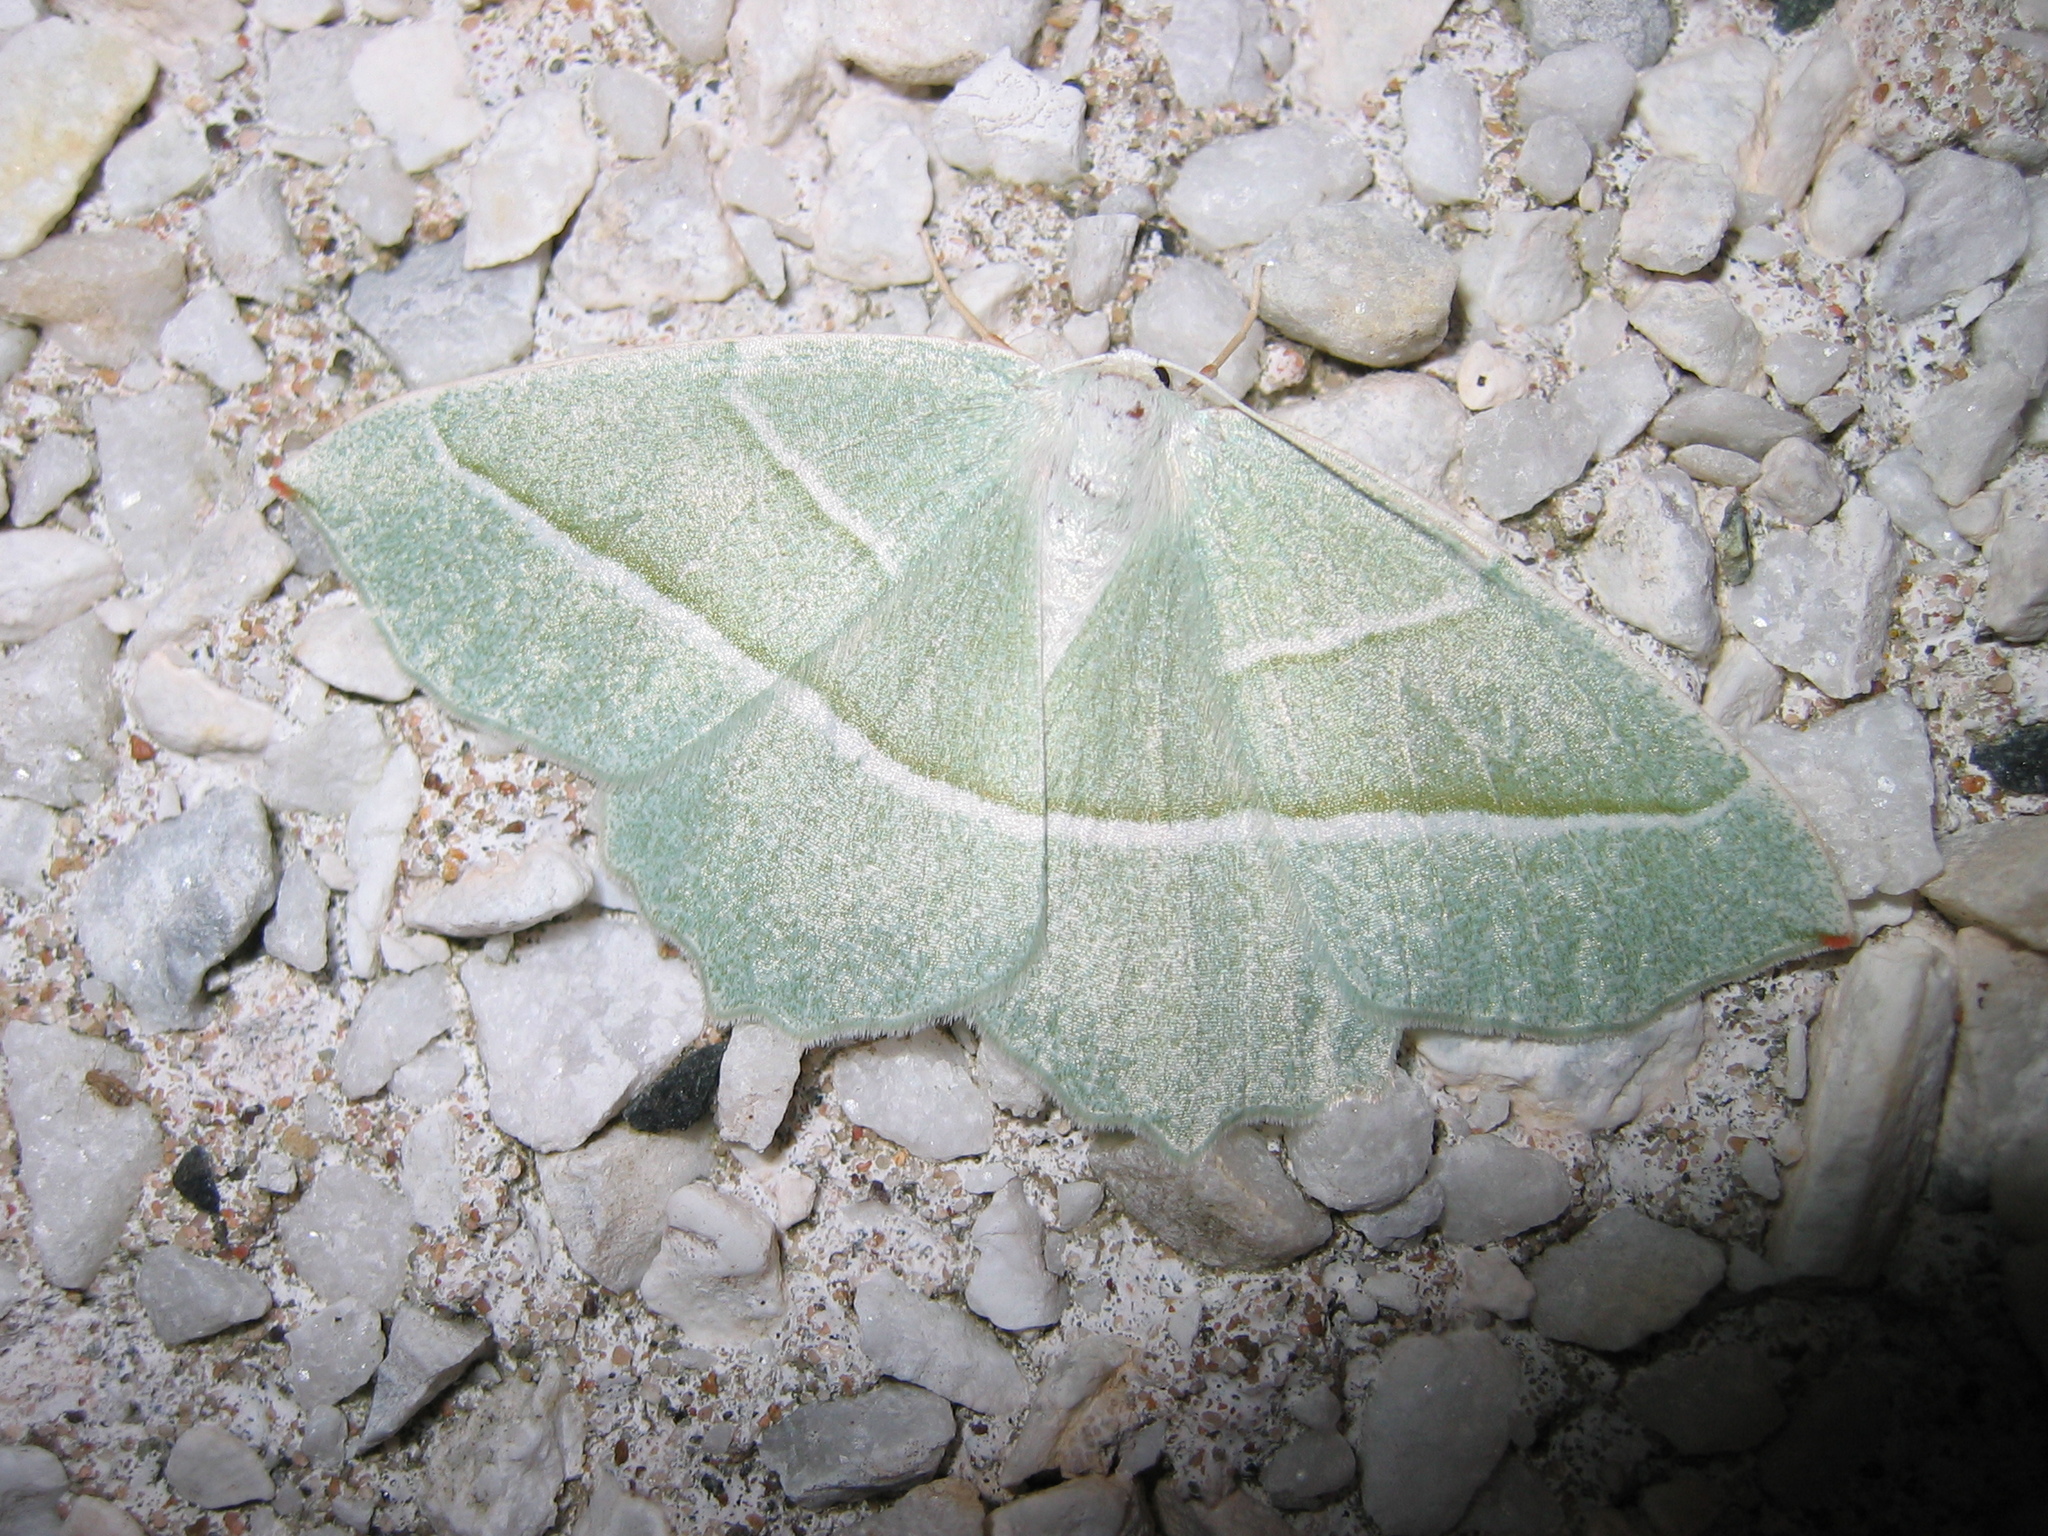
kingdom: Animalia
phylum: Arthropoda
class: Insecta
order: Lepidoptera
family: Geometridae
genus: Campaea
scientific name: Campaea margaritaria
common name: Light emerald
